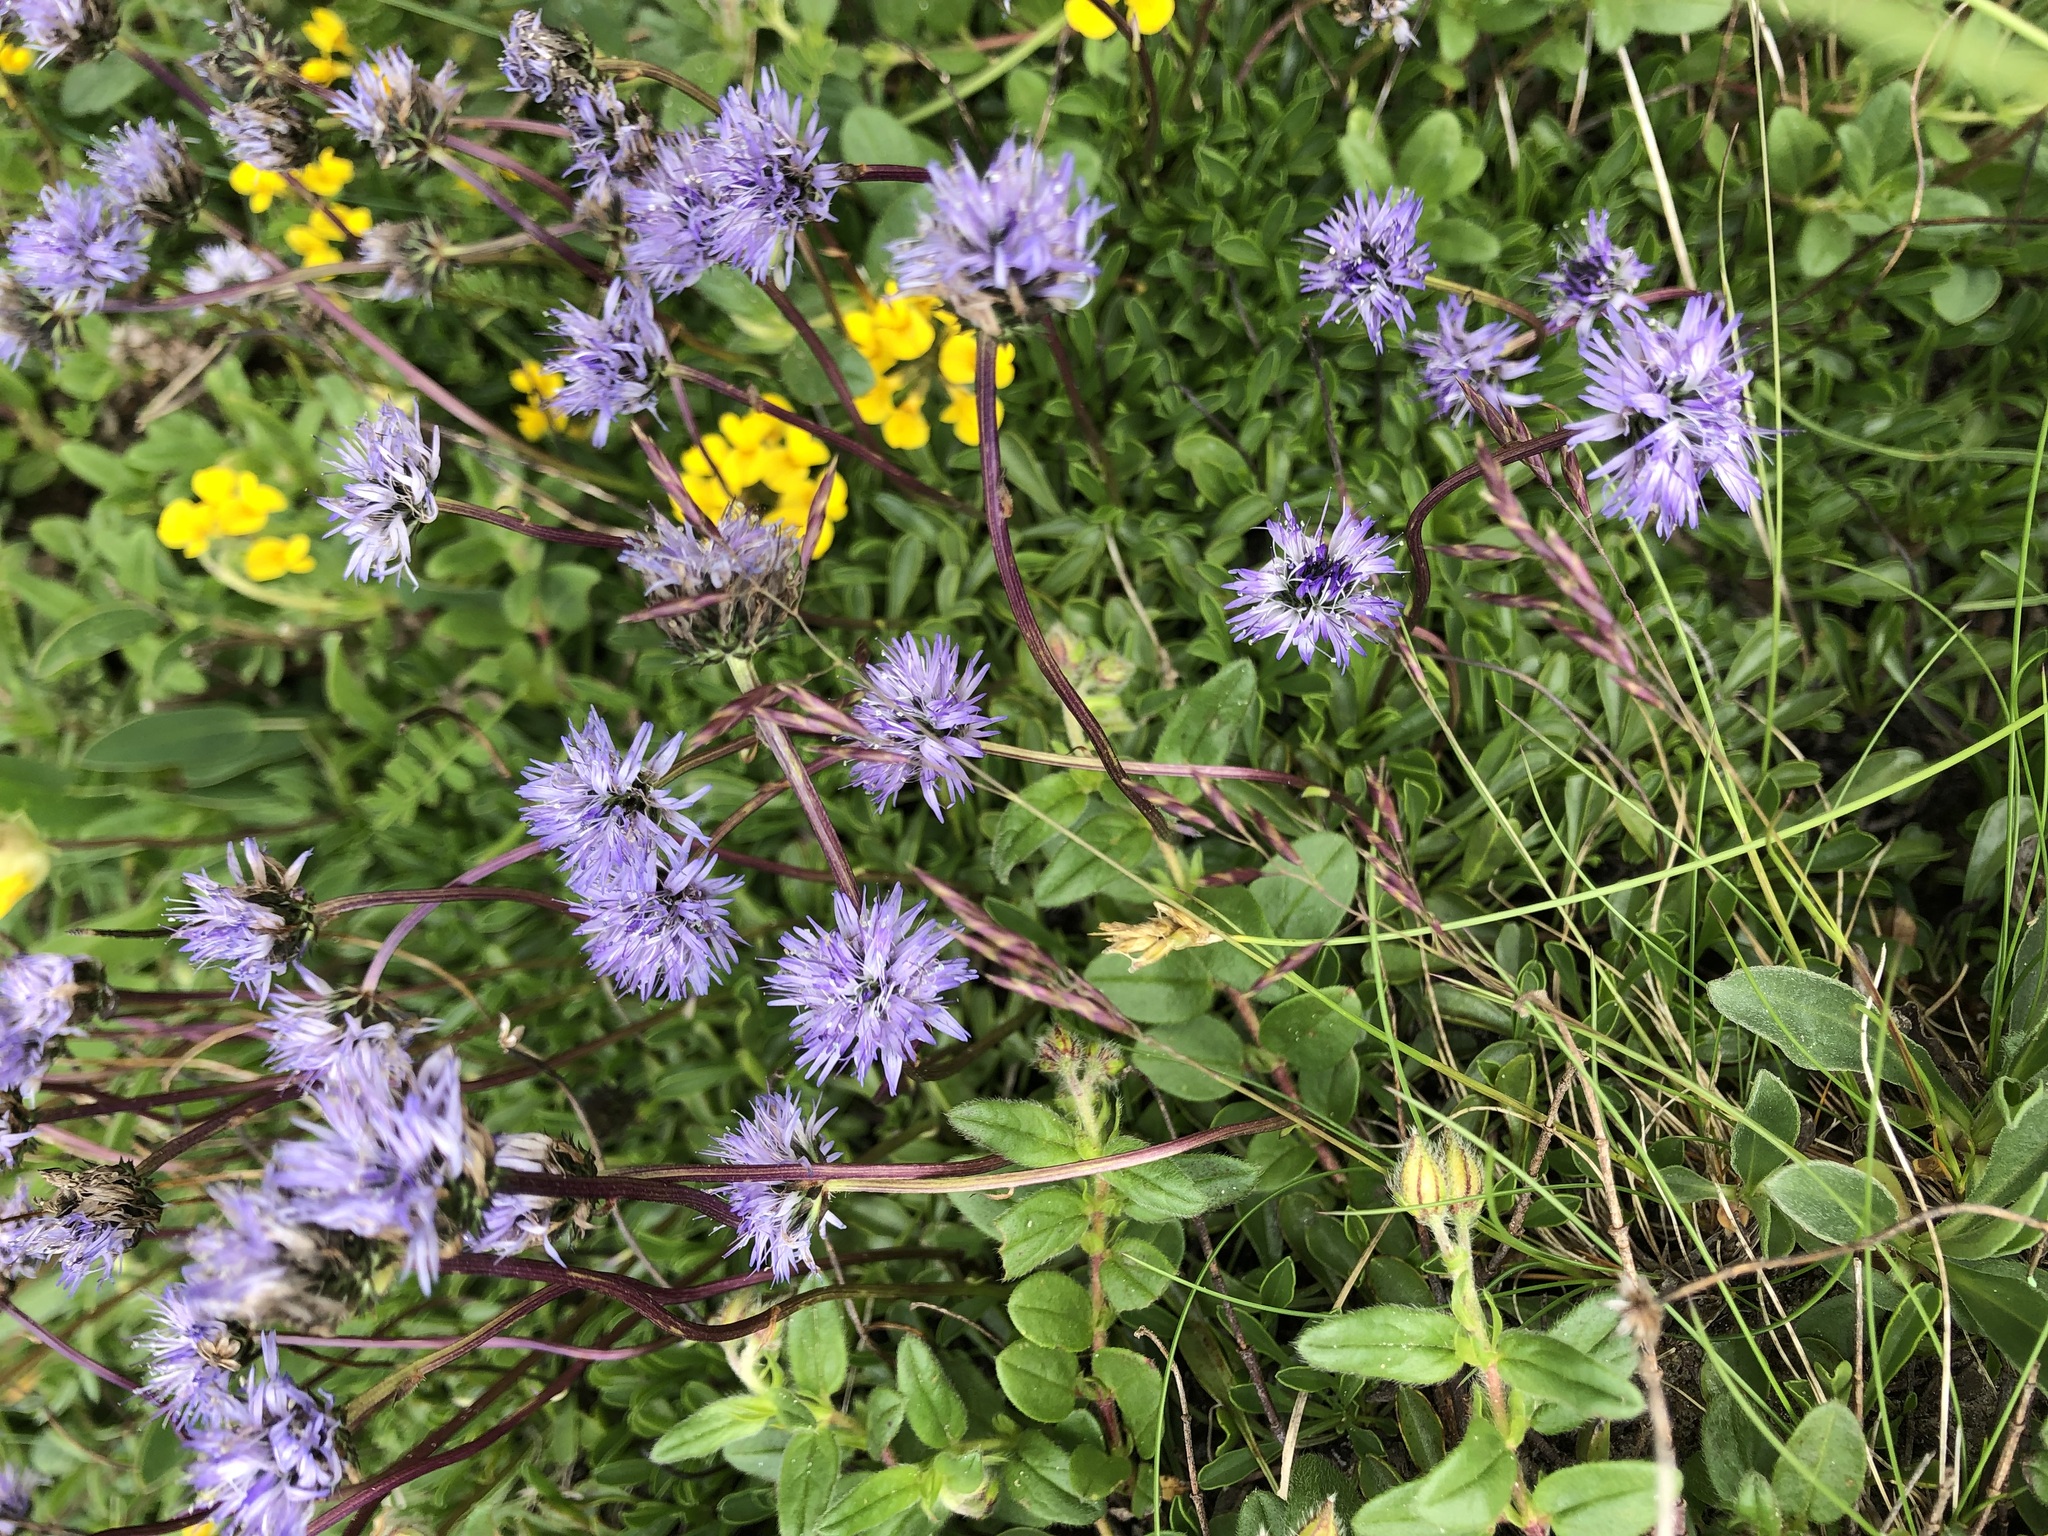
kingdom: Plantae
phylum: Tracheophyta
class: Magnoliopsida
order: Lamiales
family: Plantaginaceae
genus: Globularia
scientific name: Globularia cordifolia
